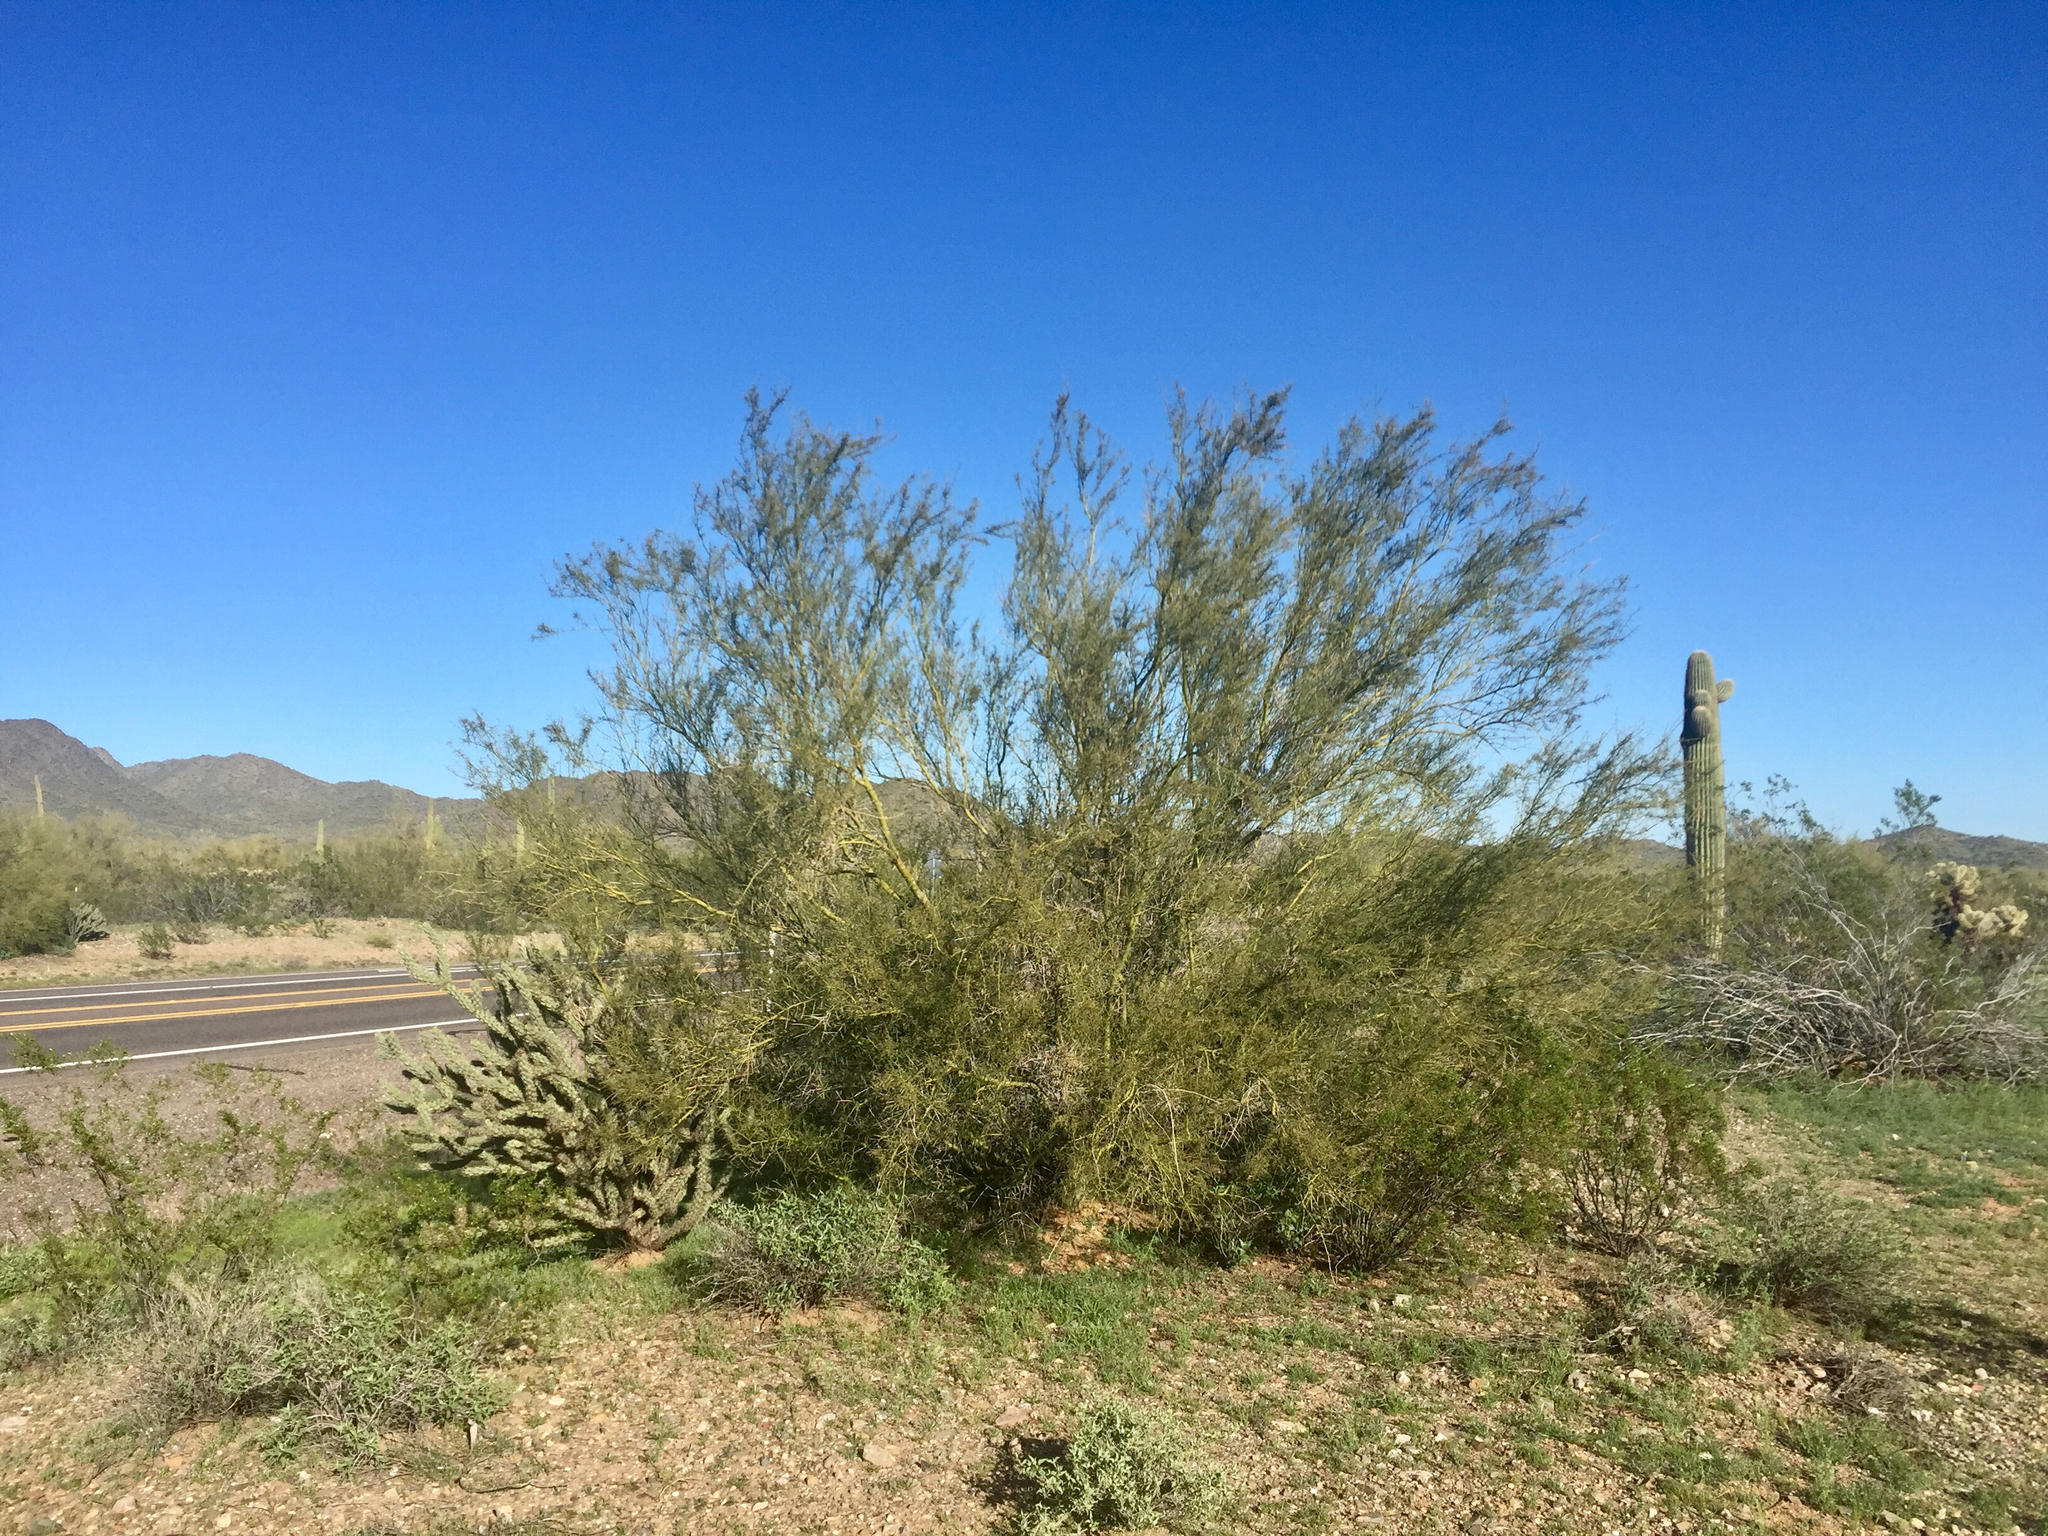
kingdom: Plantae
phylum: Tracheophyta
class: Magnoliopsida
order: Fabales
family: Fabaceae
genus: Parkinsonia
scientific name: Parkinsonia microphylla
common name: Yellow paloverde
